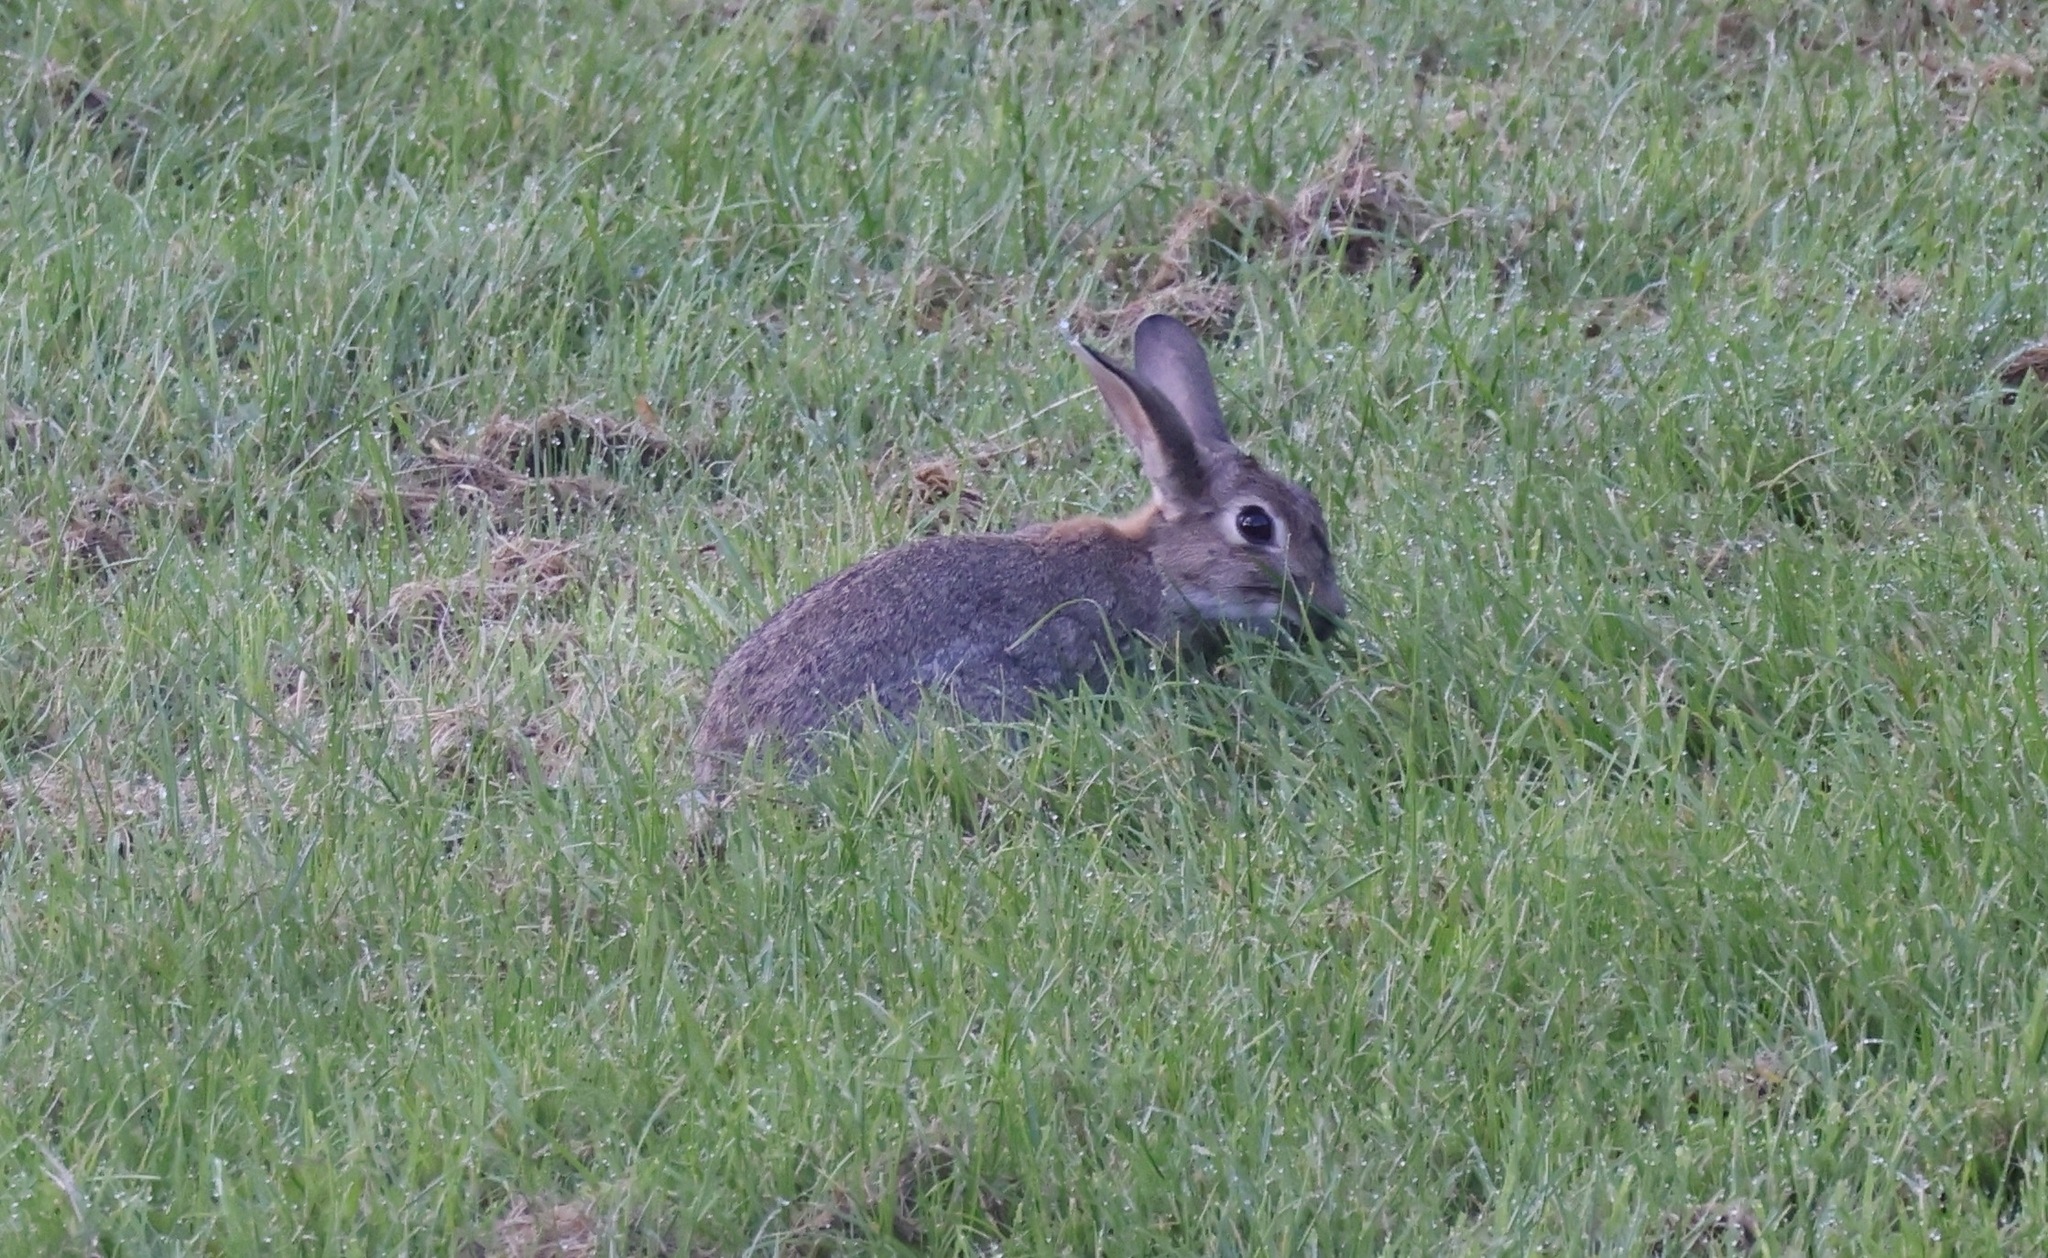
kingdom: Animalia
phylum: Chordata
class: Mammalia
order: Lagomorpha
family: Leporidae
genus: Oryctolagus
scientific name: Oryctolagus cuniculus
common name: European rabbit
